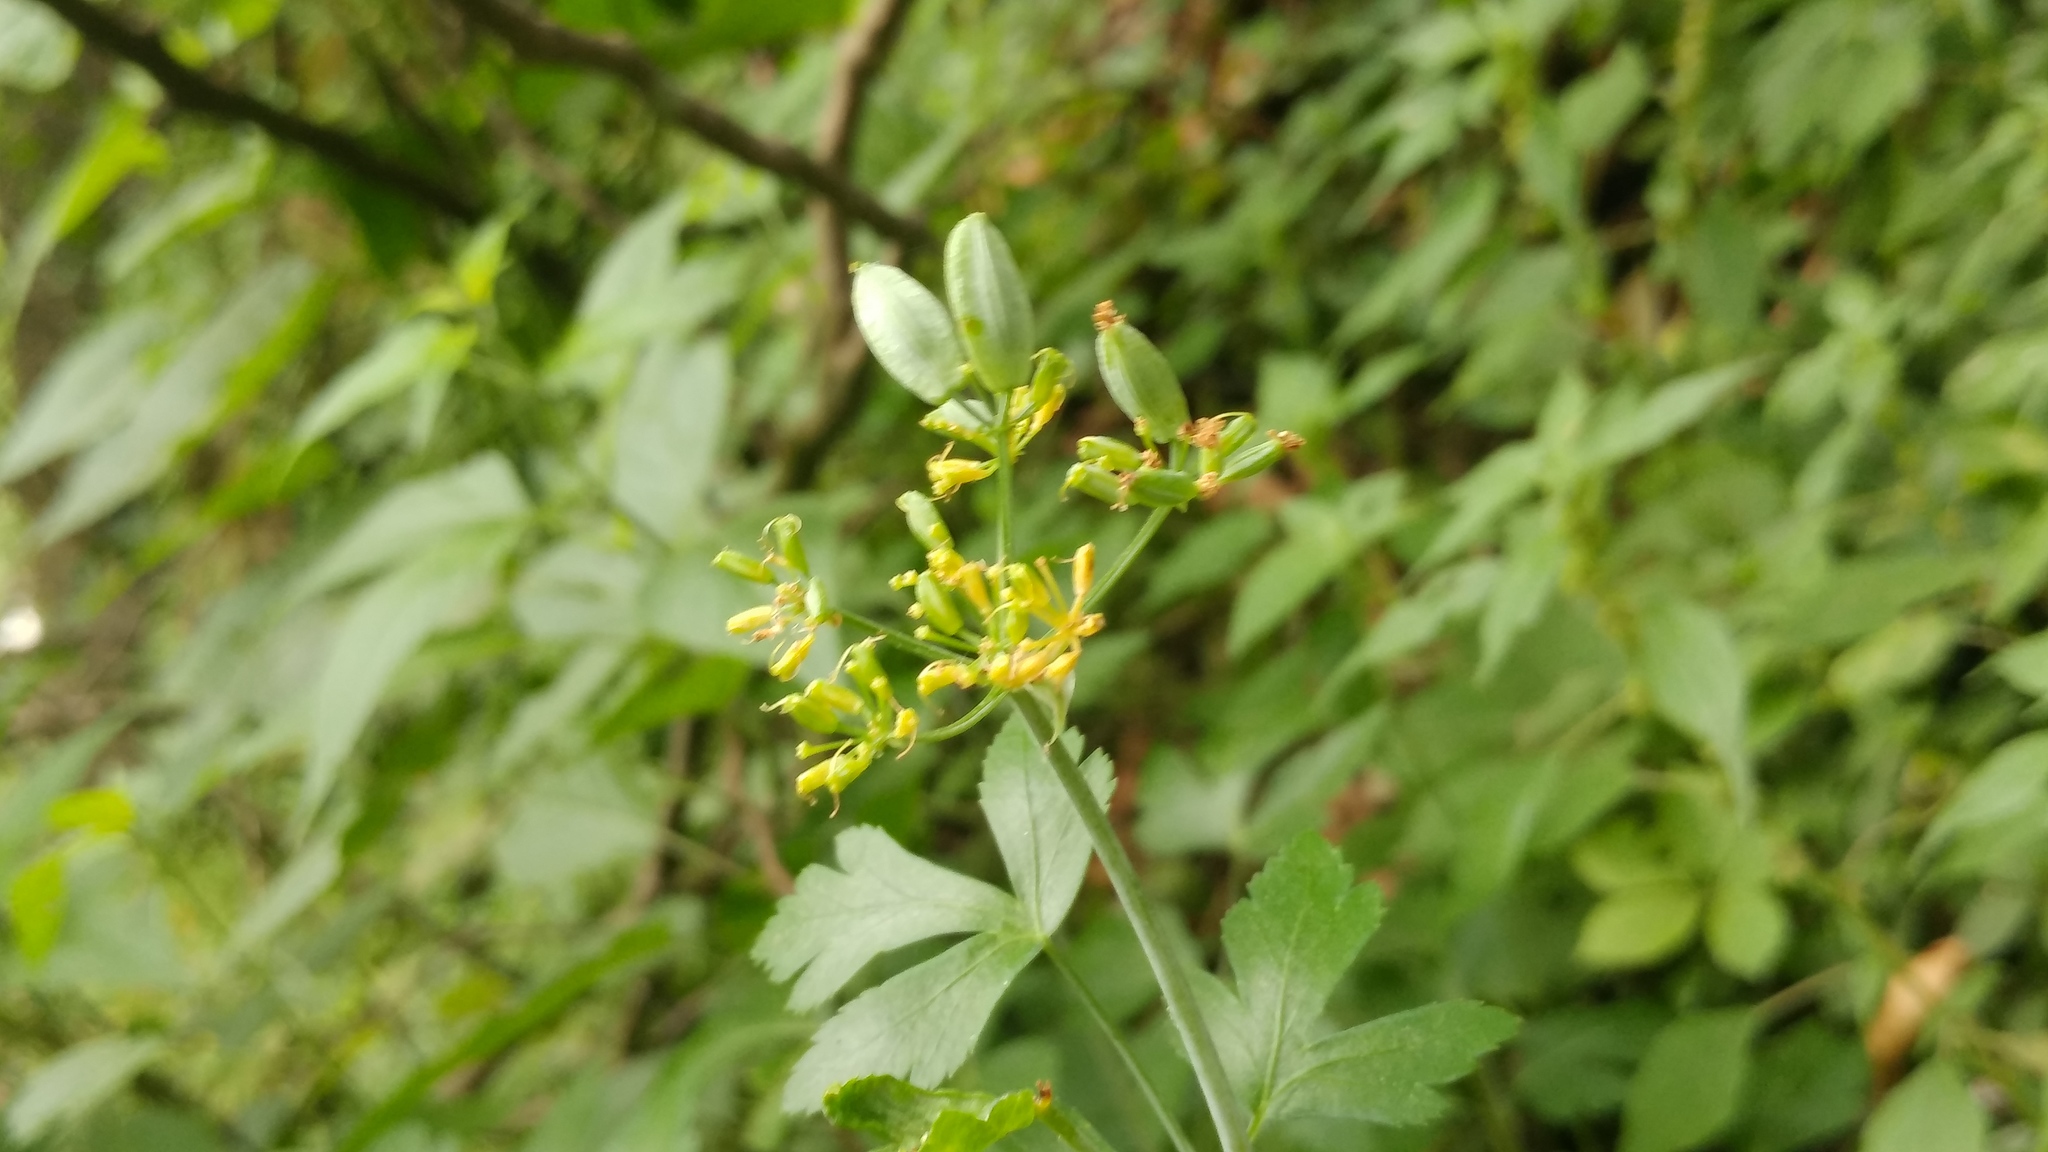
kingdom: Plantae
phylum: Tracheophyta
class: Magnoliopsida
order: Apiales
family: Apiaceae
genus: Arracacia
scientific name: Arracacia atropurpurea
